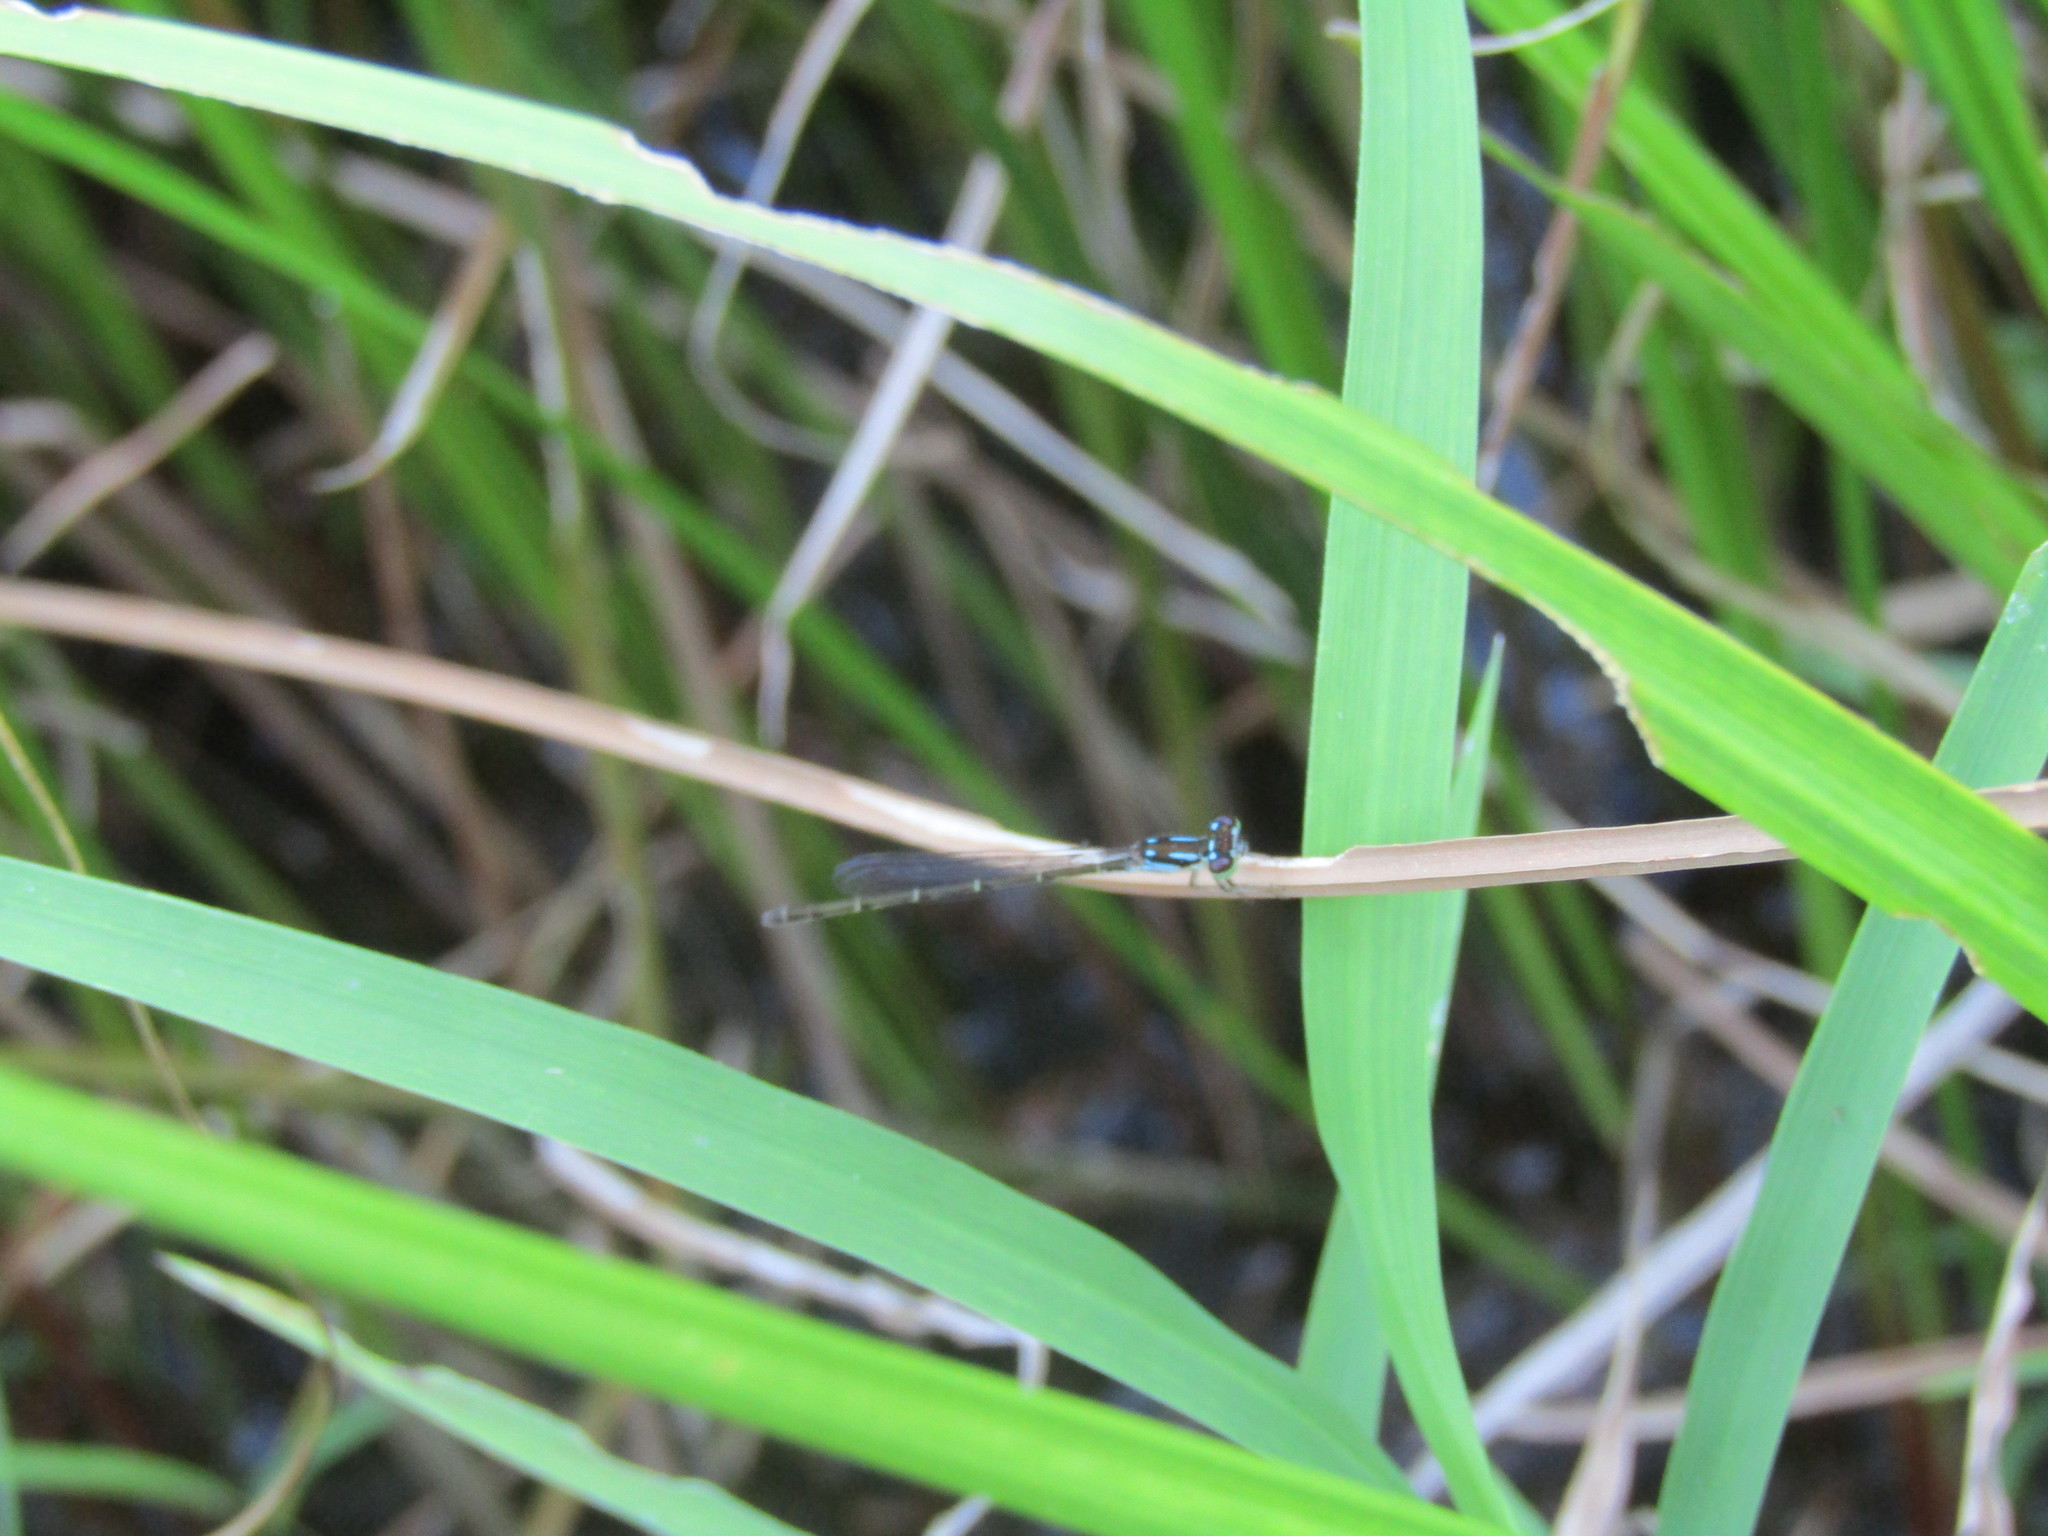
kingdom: Animalia
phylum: Arthropoda
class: Insecta
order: Odonata
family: Coenagrionidae
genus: Ischnura
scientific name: Ischnura posita
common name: Fragile forktail
